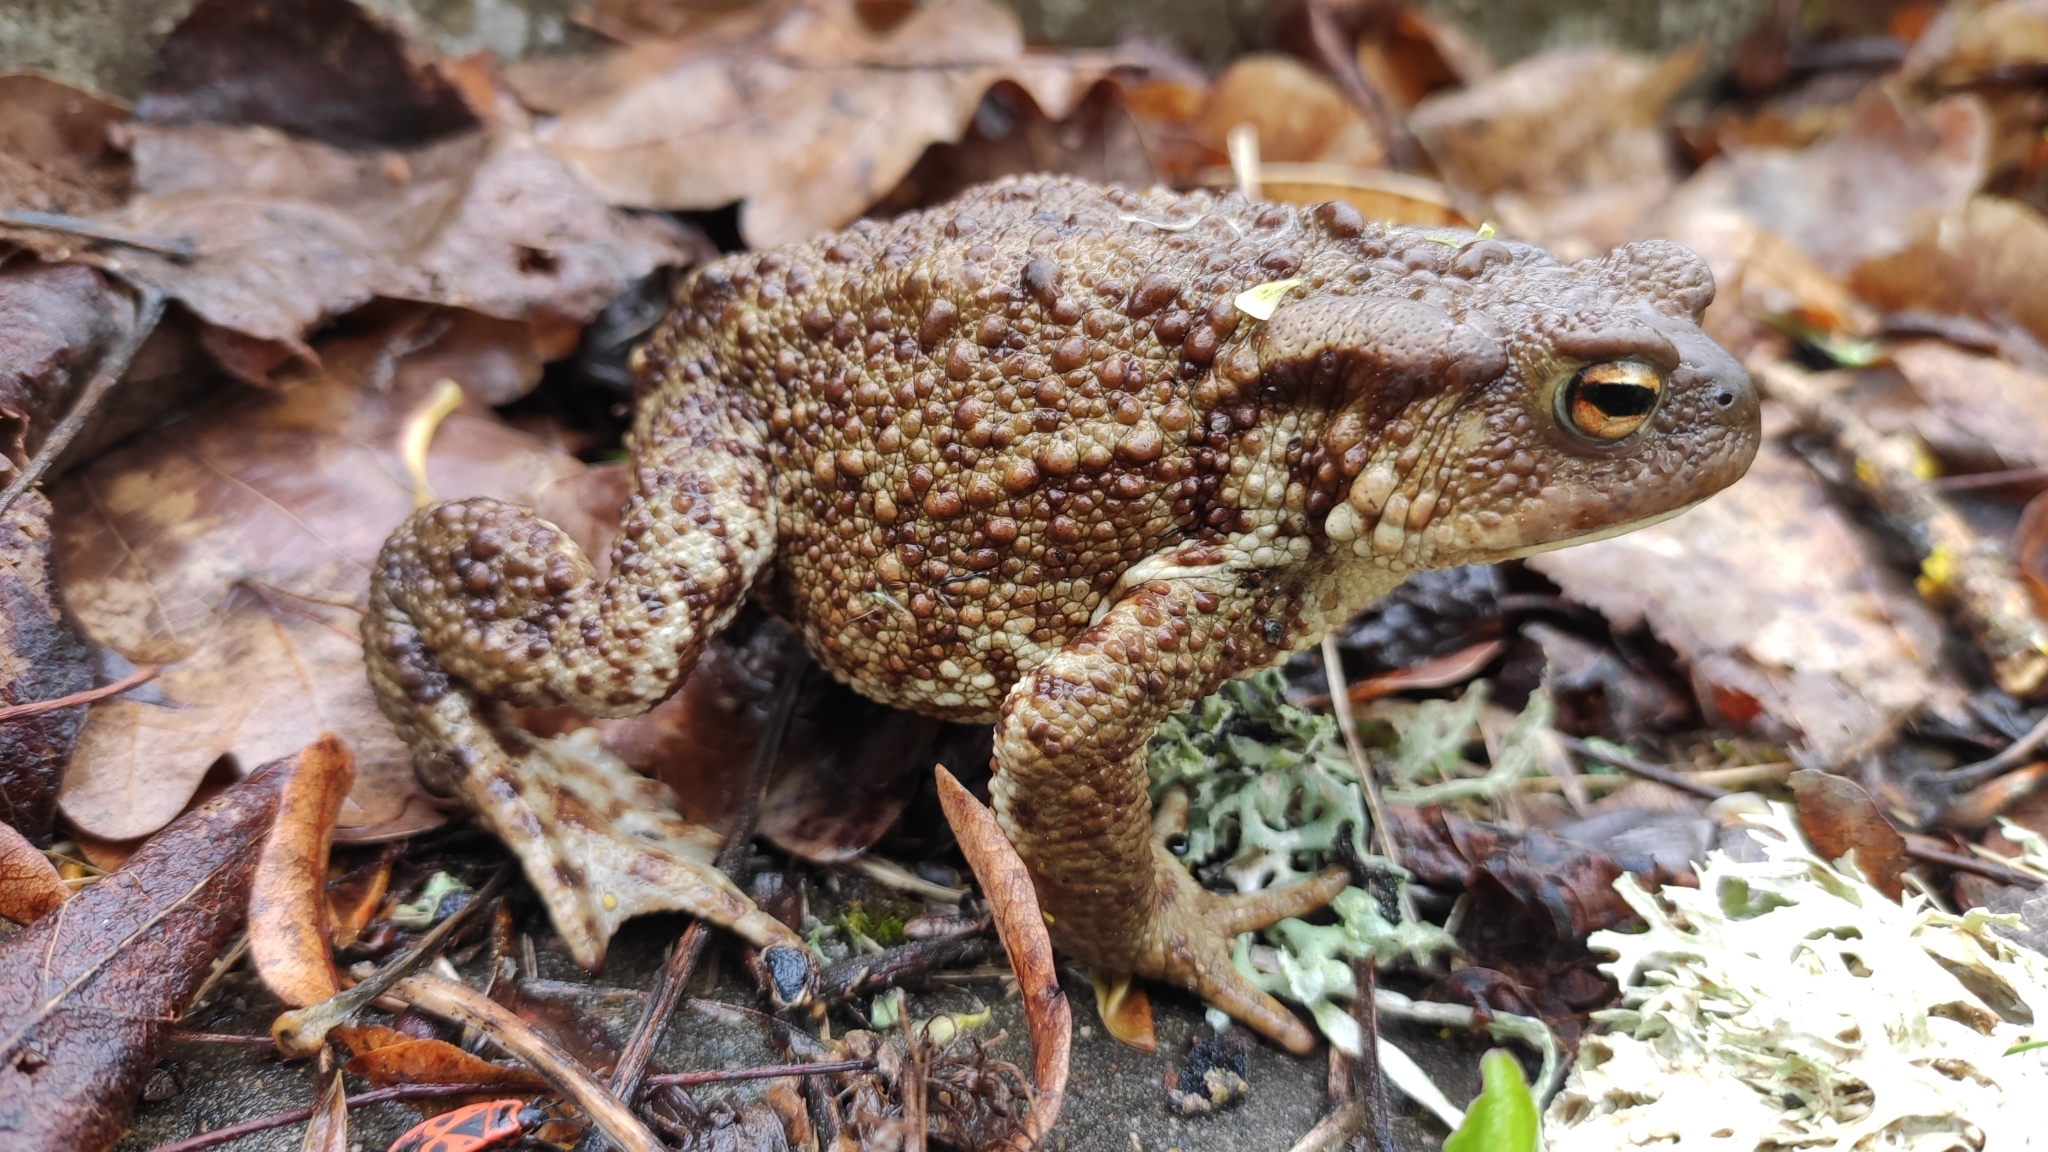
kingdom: Animalia
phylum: Chordata
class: Amphibia
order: Anura
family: Bufonidae
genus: Bufo
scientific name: Bufo bufo
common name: Common toad
